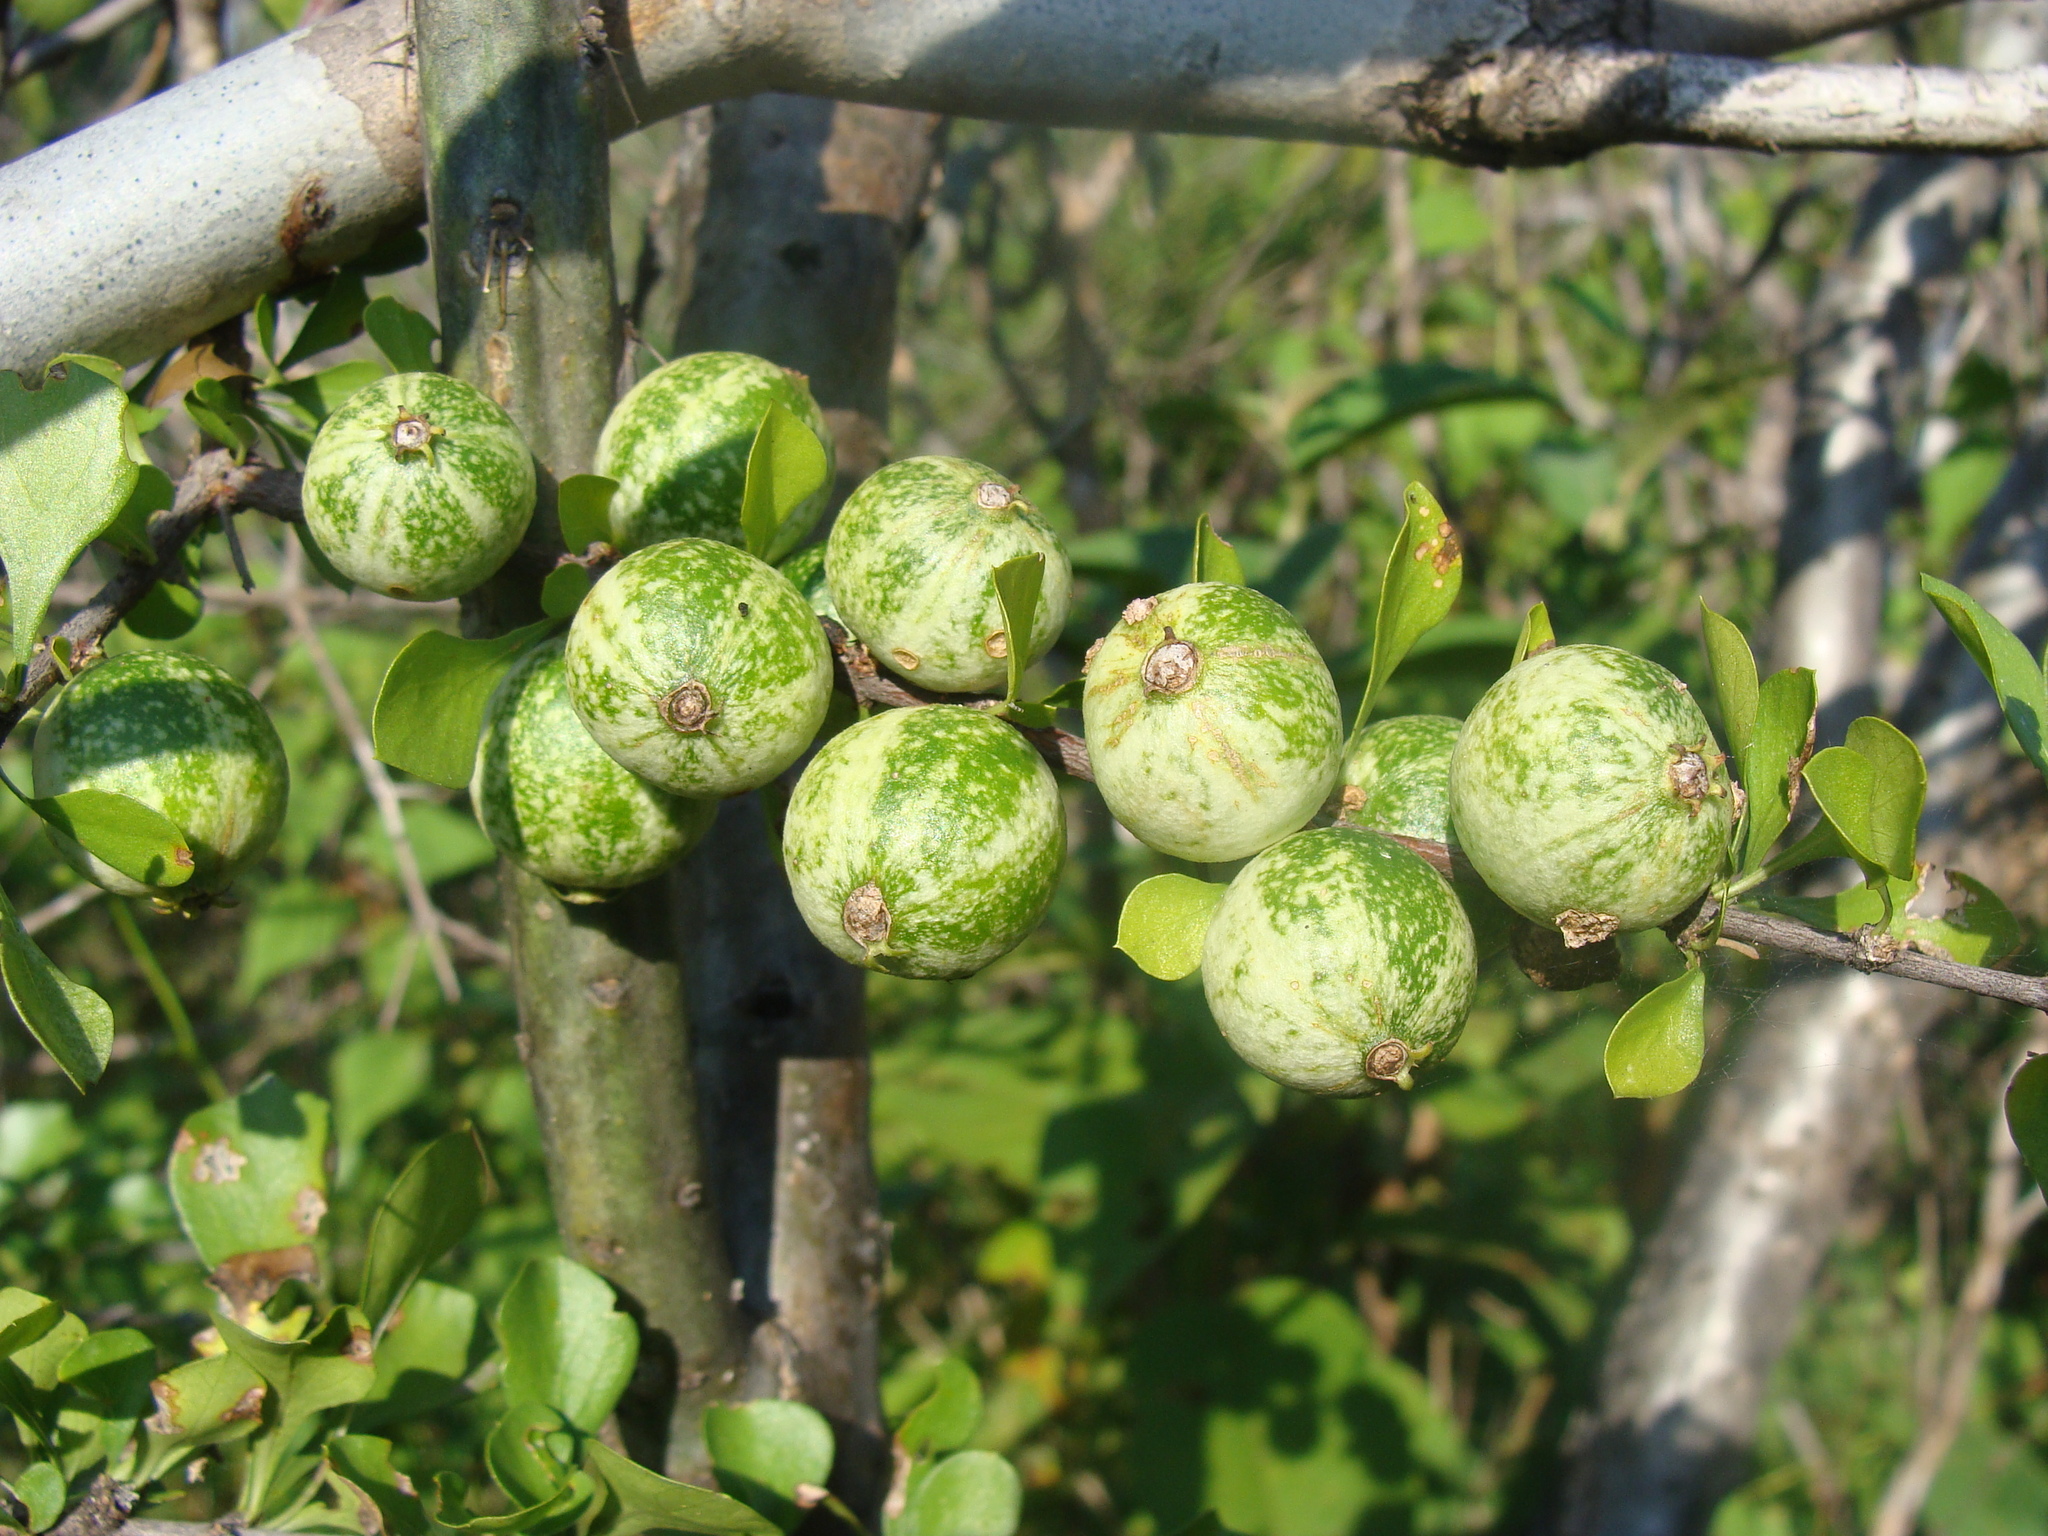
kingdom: Plantae
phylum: Tracheophyta
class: Magnoliopsida
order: Gentianales
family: Rubiaceae
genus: Randia
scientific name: Randia thurberi
